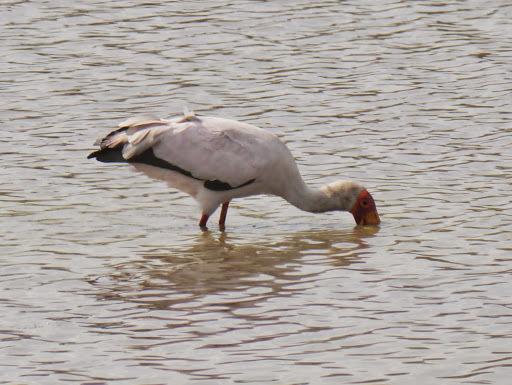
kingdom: Animalia
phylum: Chordata
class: Aves
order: Ciconiiformes
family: Ciconiidae
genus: Mycteria
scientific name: Mycteria ibis
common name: Yellow-billed stork
